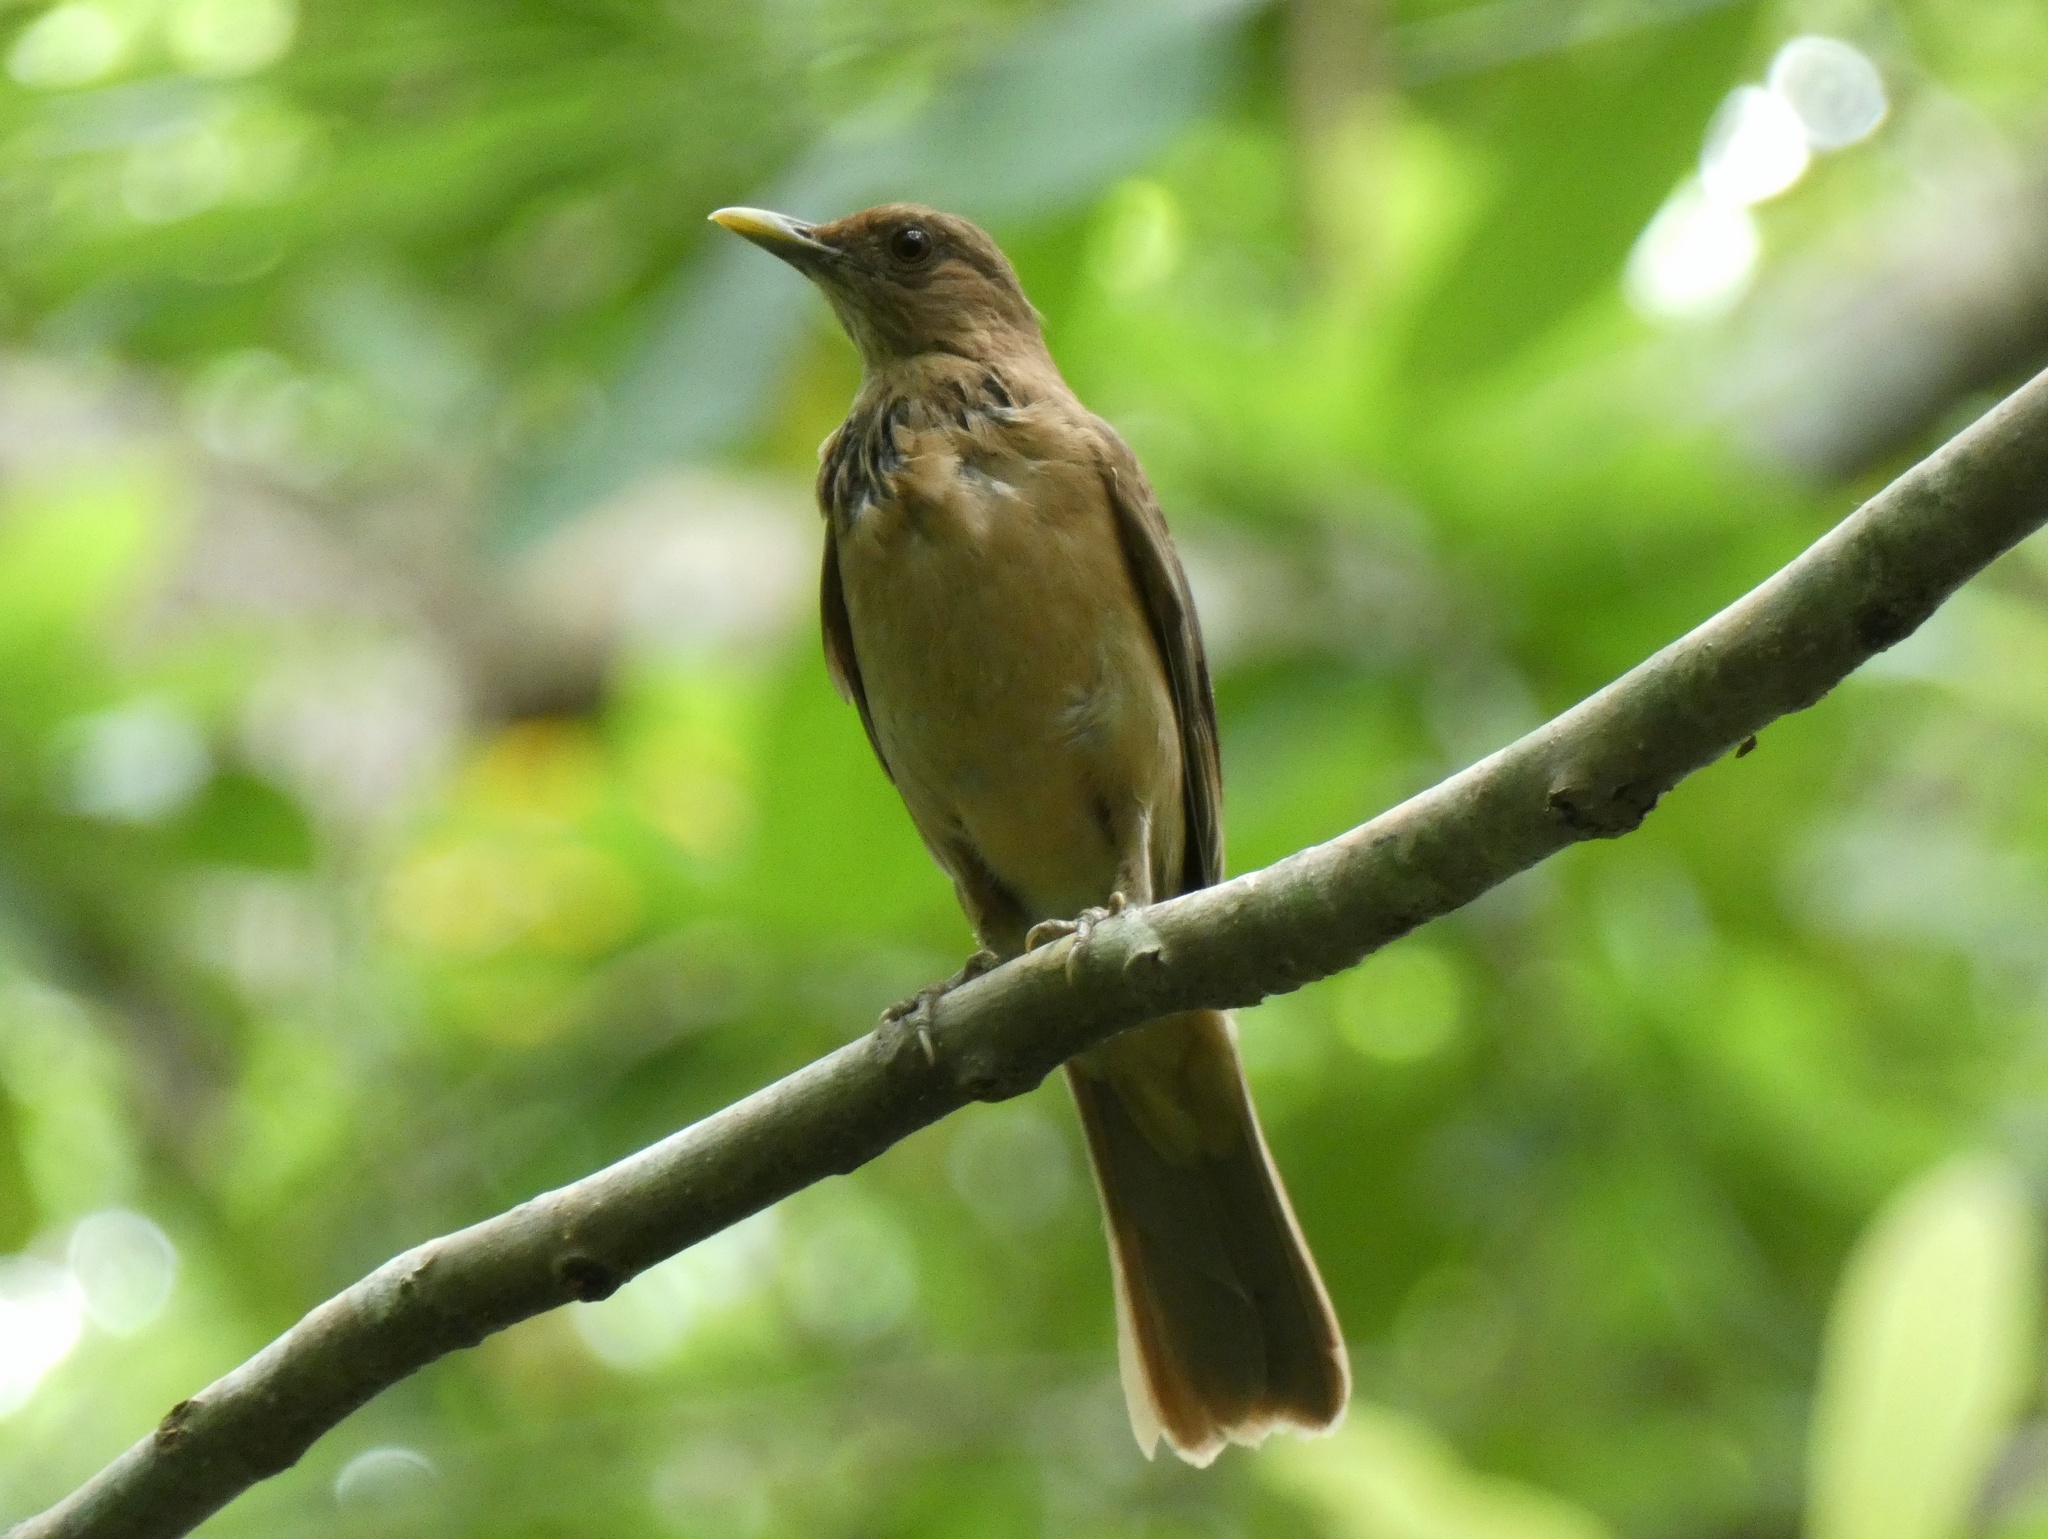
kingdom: Animalia
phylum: Chordata
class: Aves
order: Passeriformes
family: Turdidae
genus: Turdus
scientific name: Turdus grayi
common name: Clay-colored thrush
